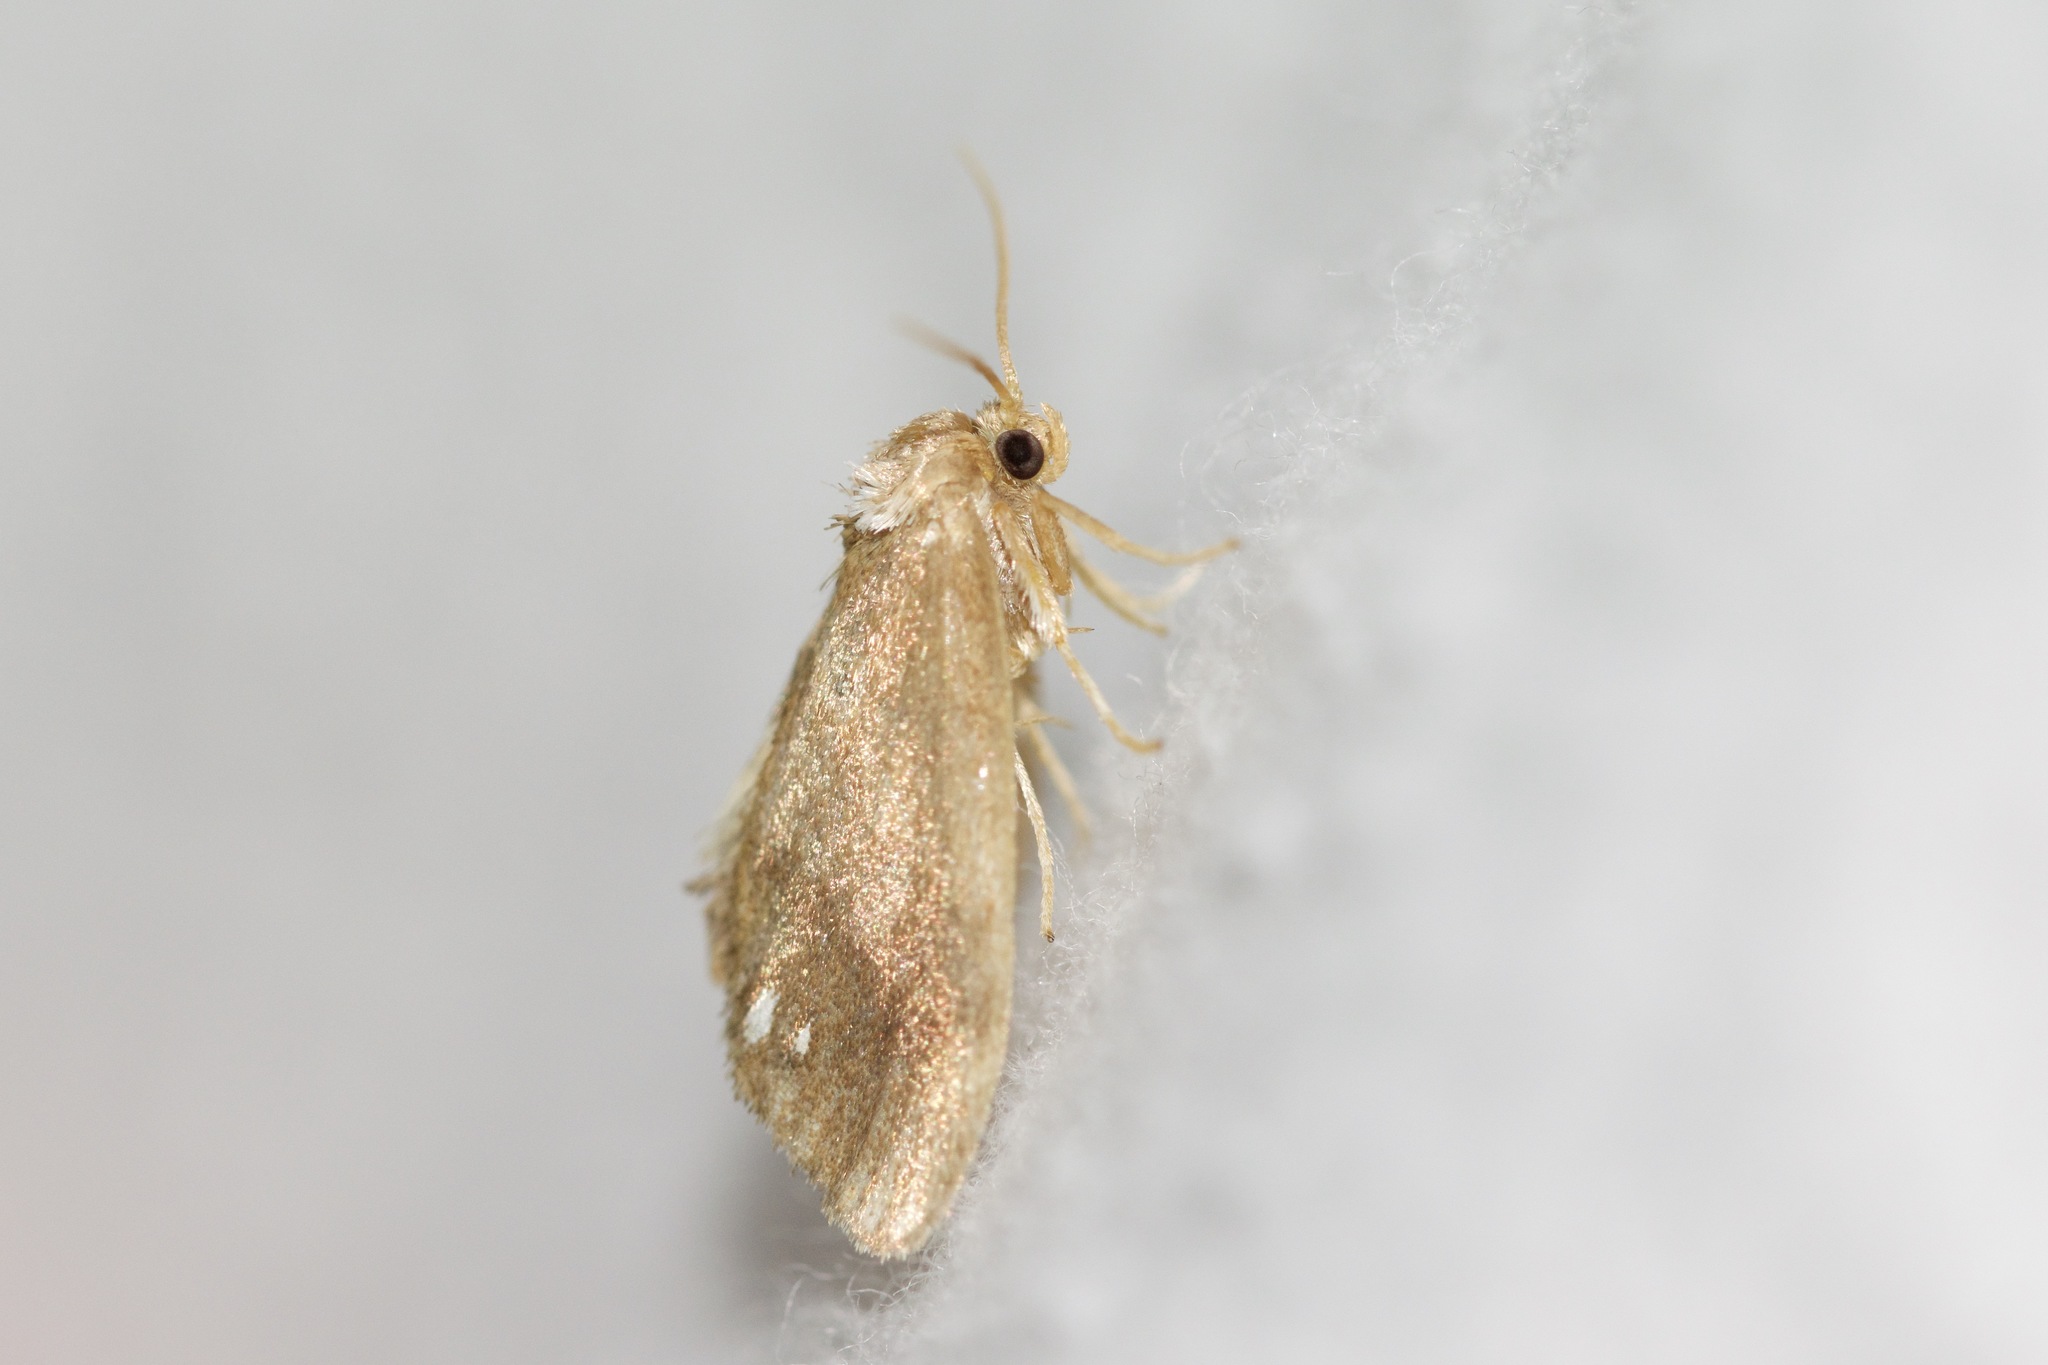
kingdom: Animalia
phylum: Arthropoda
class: Insecta
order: Lepidoptera
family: Limacodidae
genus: Packardia
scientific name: Packardia geminata
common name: Jeweled tailed slug moth
